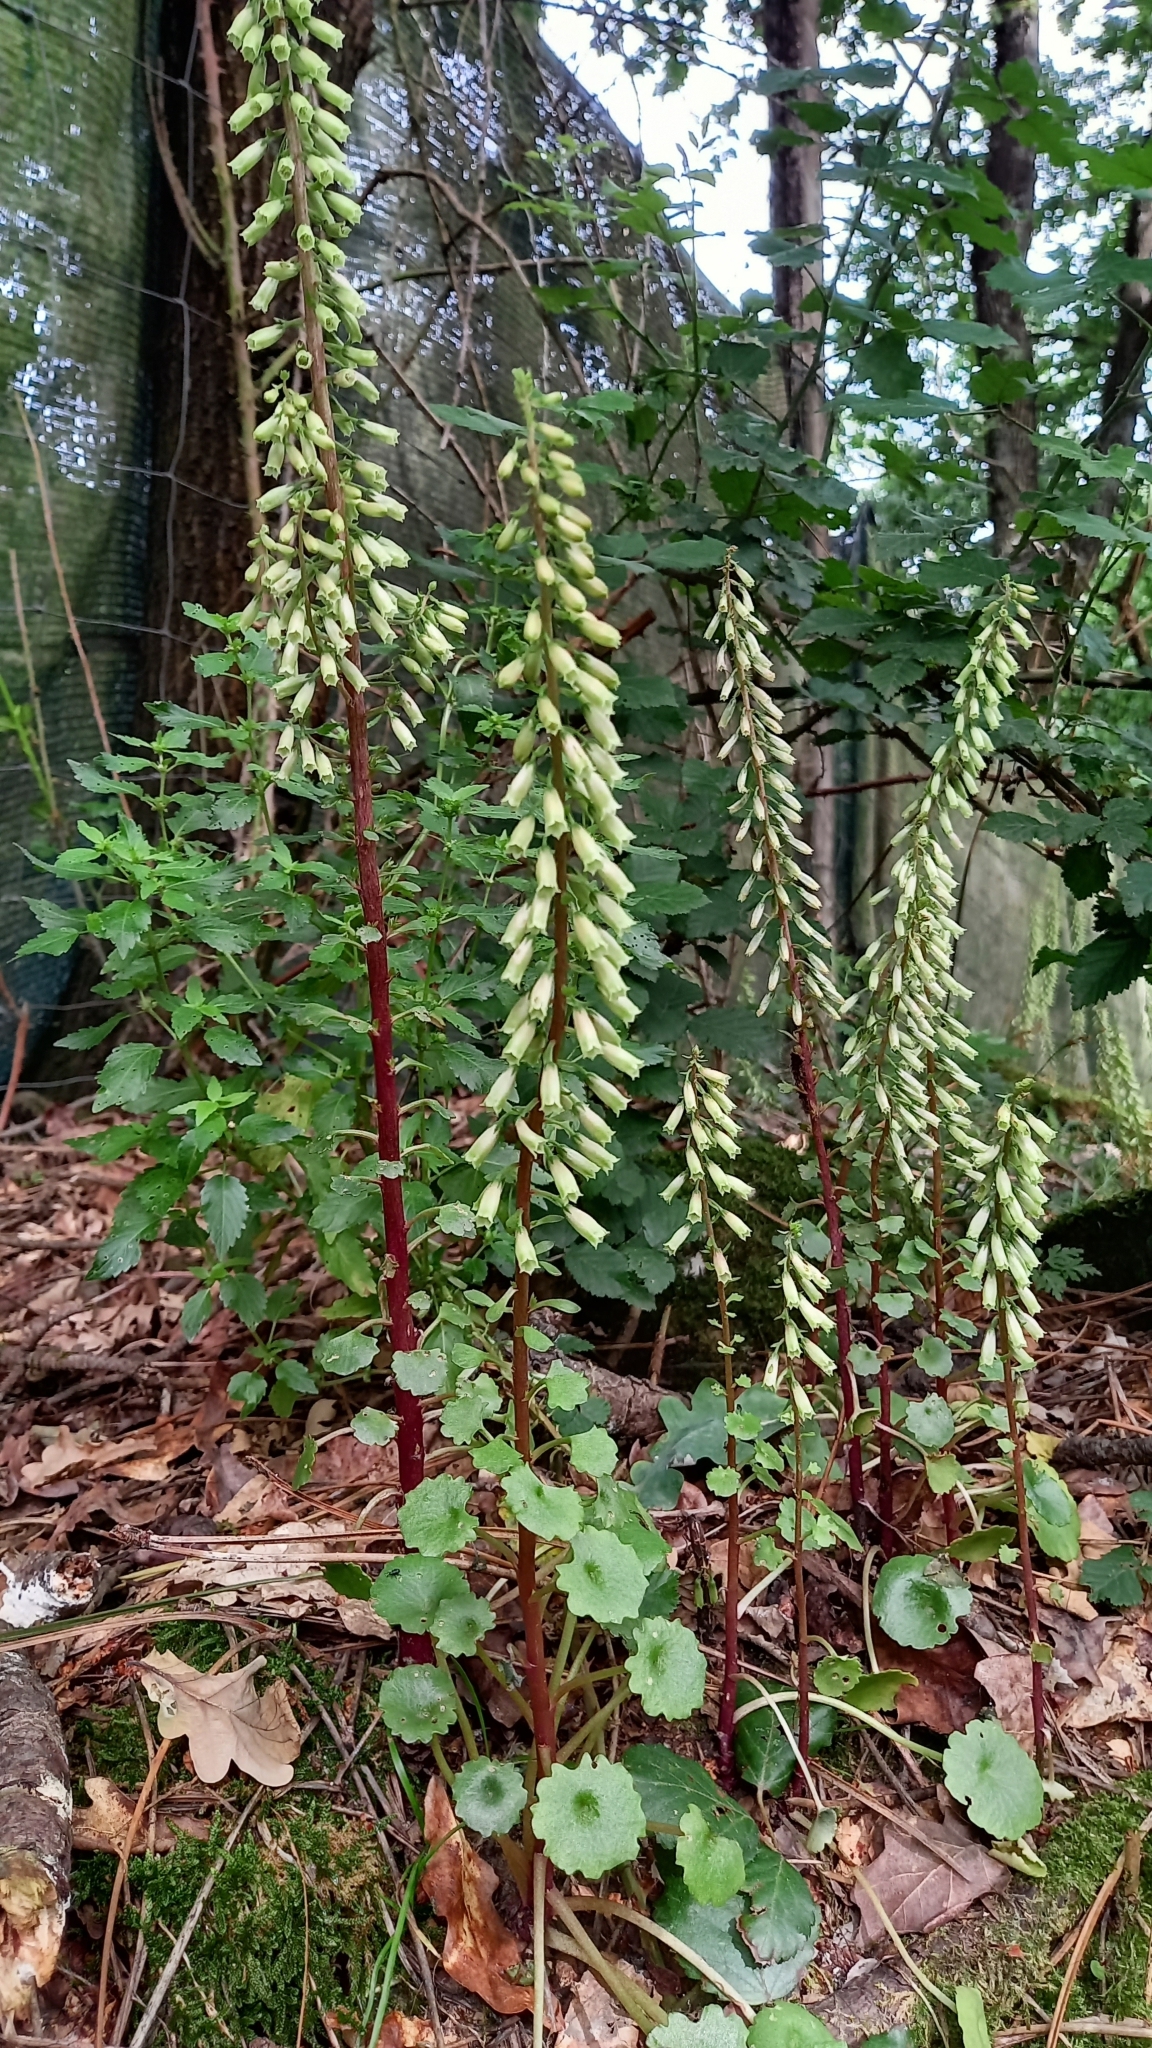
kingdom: Plantae
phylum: Tracheophyta
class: Magnoliopsida
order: Saxifragales
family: Crassulaceae
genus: Umbilicus
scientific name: Umbilicus rupestris
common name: Navelwort
